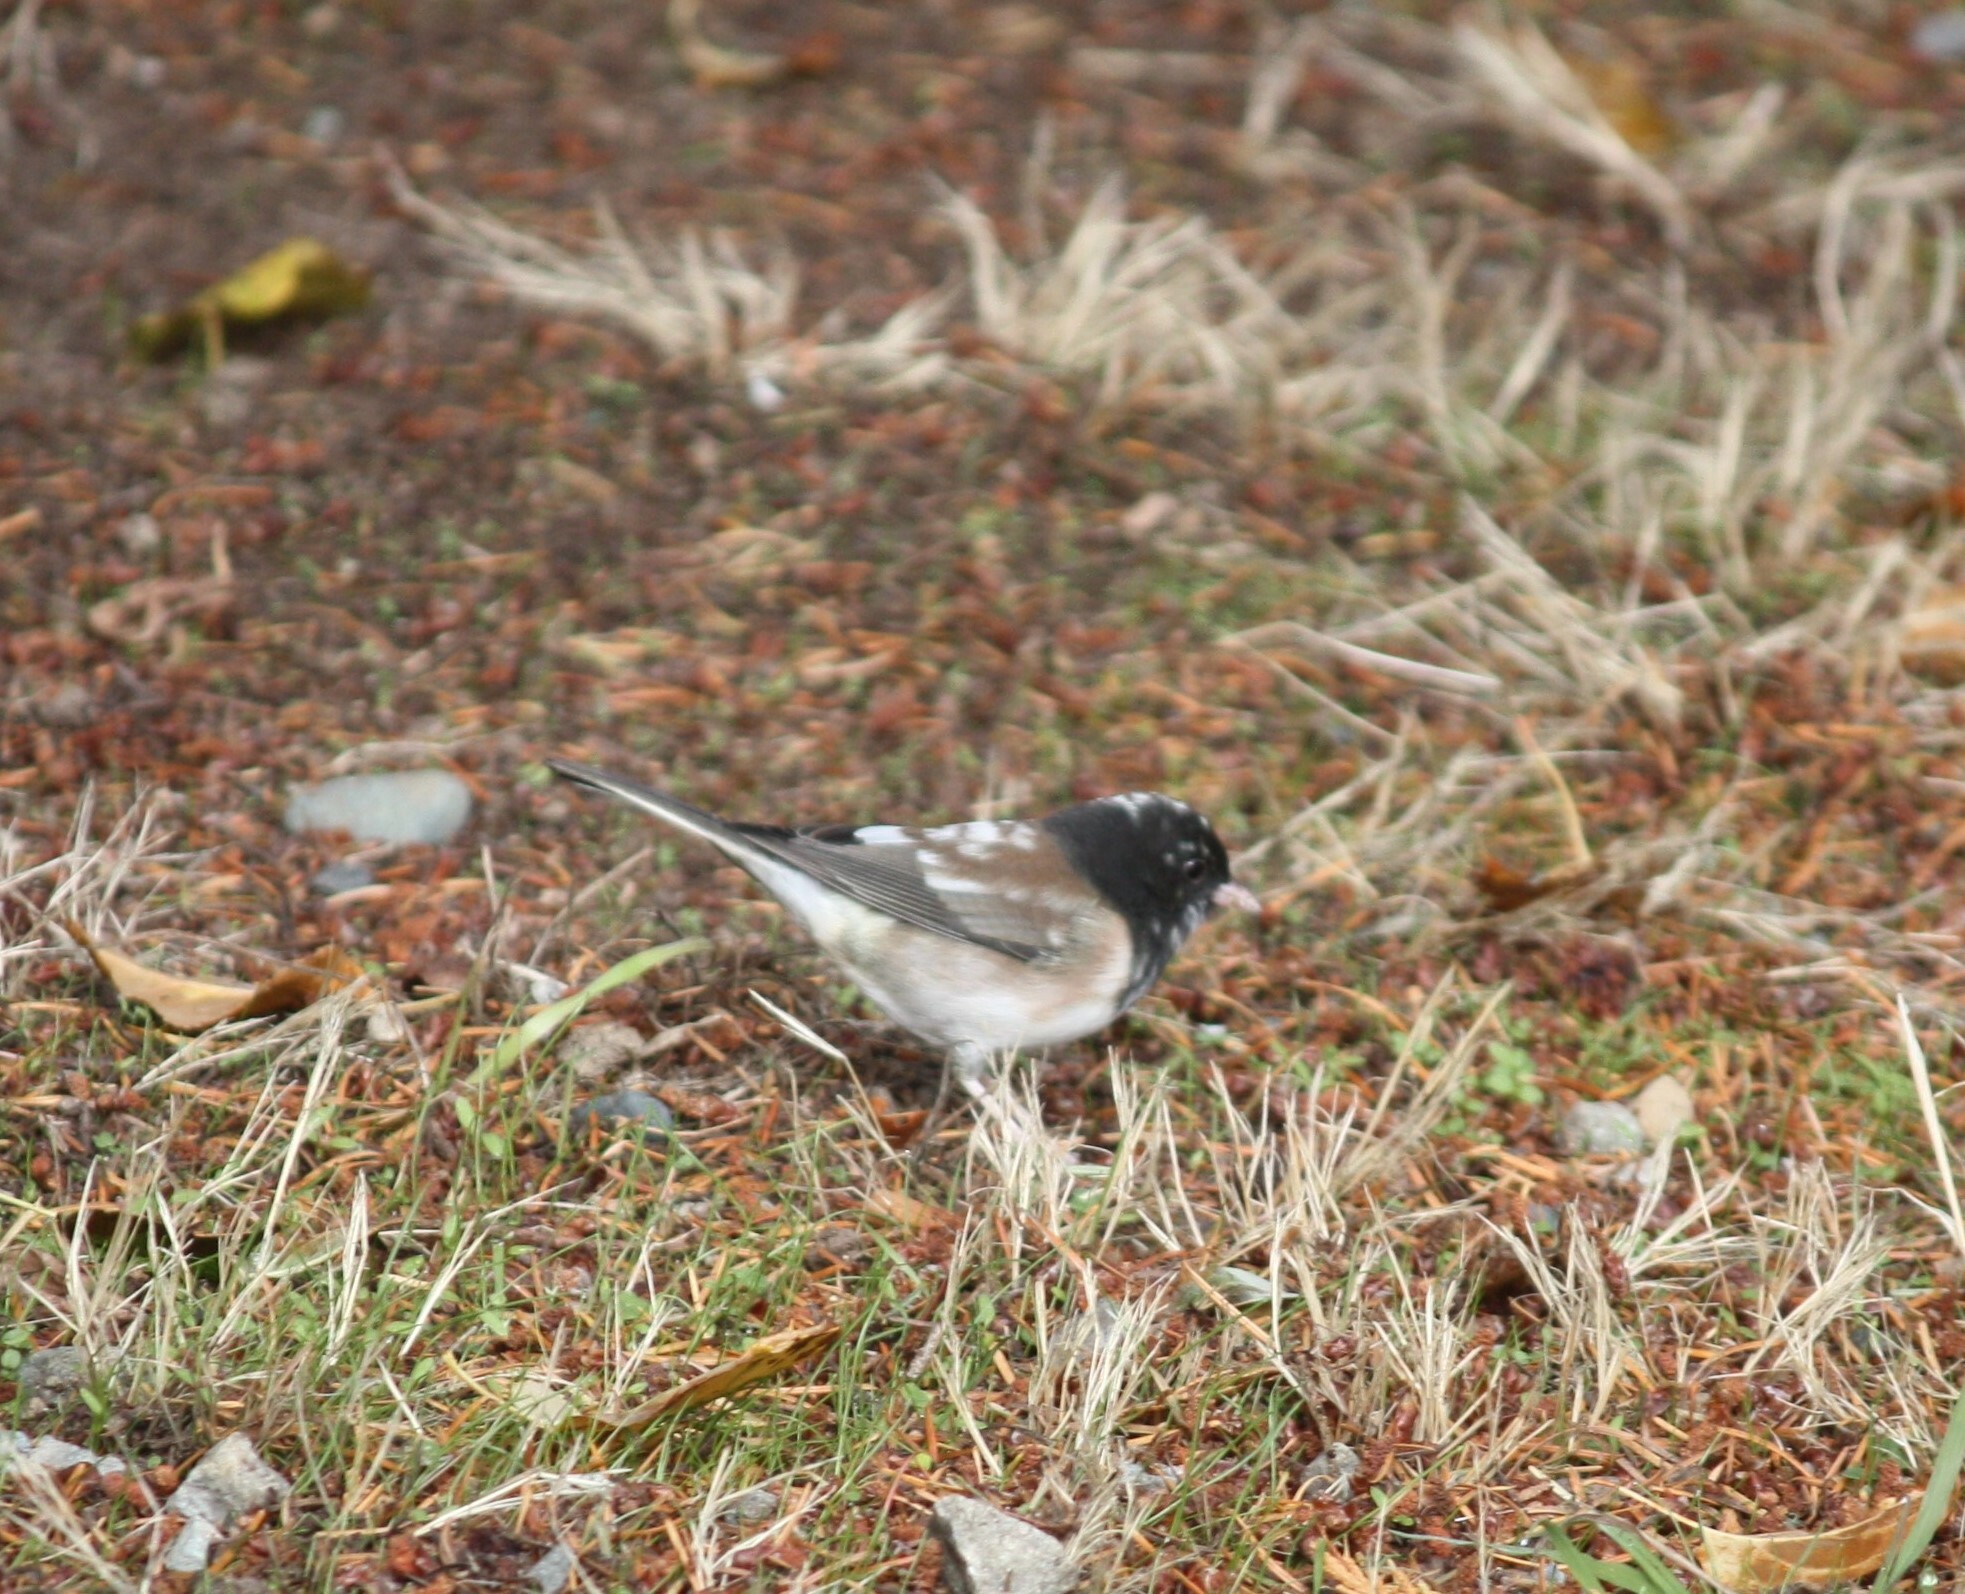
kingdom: Animalia
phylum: Chordata
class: Aves
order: Passeriformes
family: Passerellidae
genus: Junco
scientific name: Junco hyemalis
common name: Dark-eyed junco
